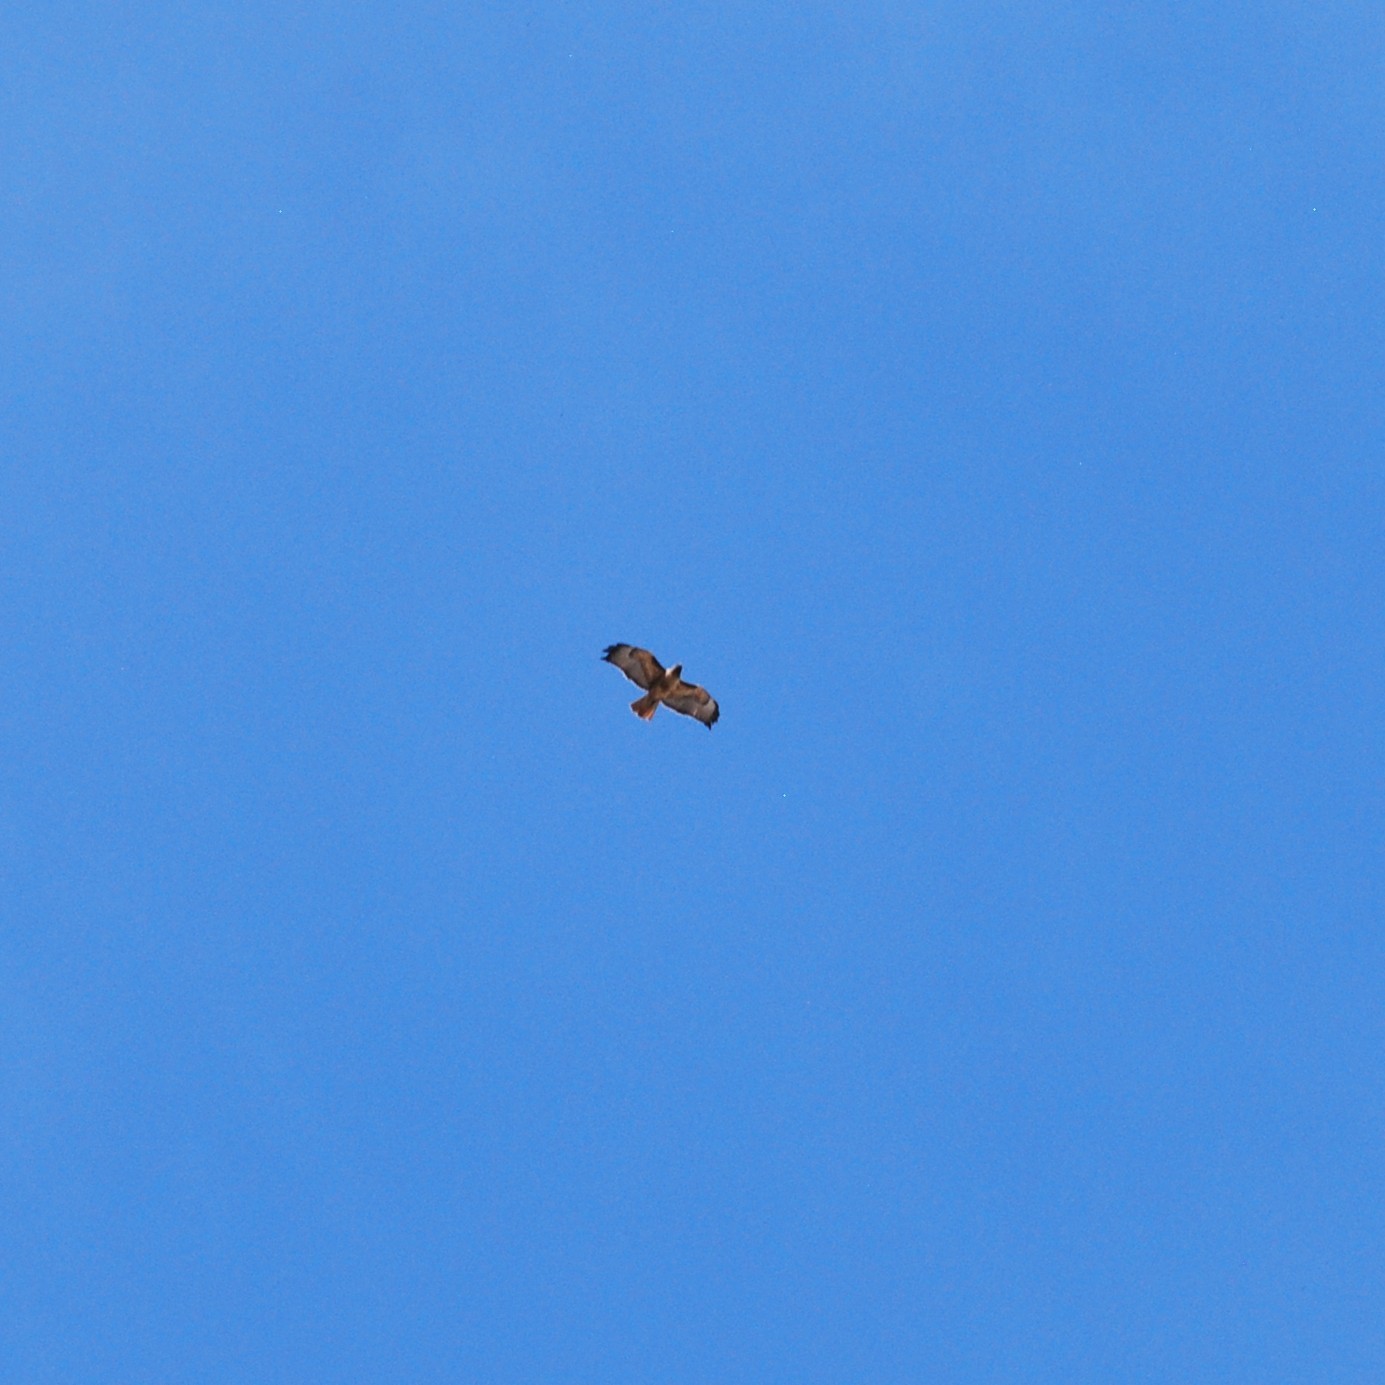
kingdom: Animalia
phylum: Chordata
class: Aves
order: Accipitriformes
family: Accipitridae
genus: Buteo
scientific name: Buteo jamaicensis
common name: Red-tailed hawk
